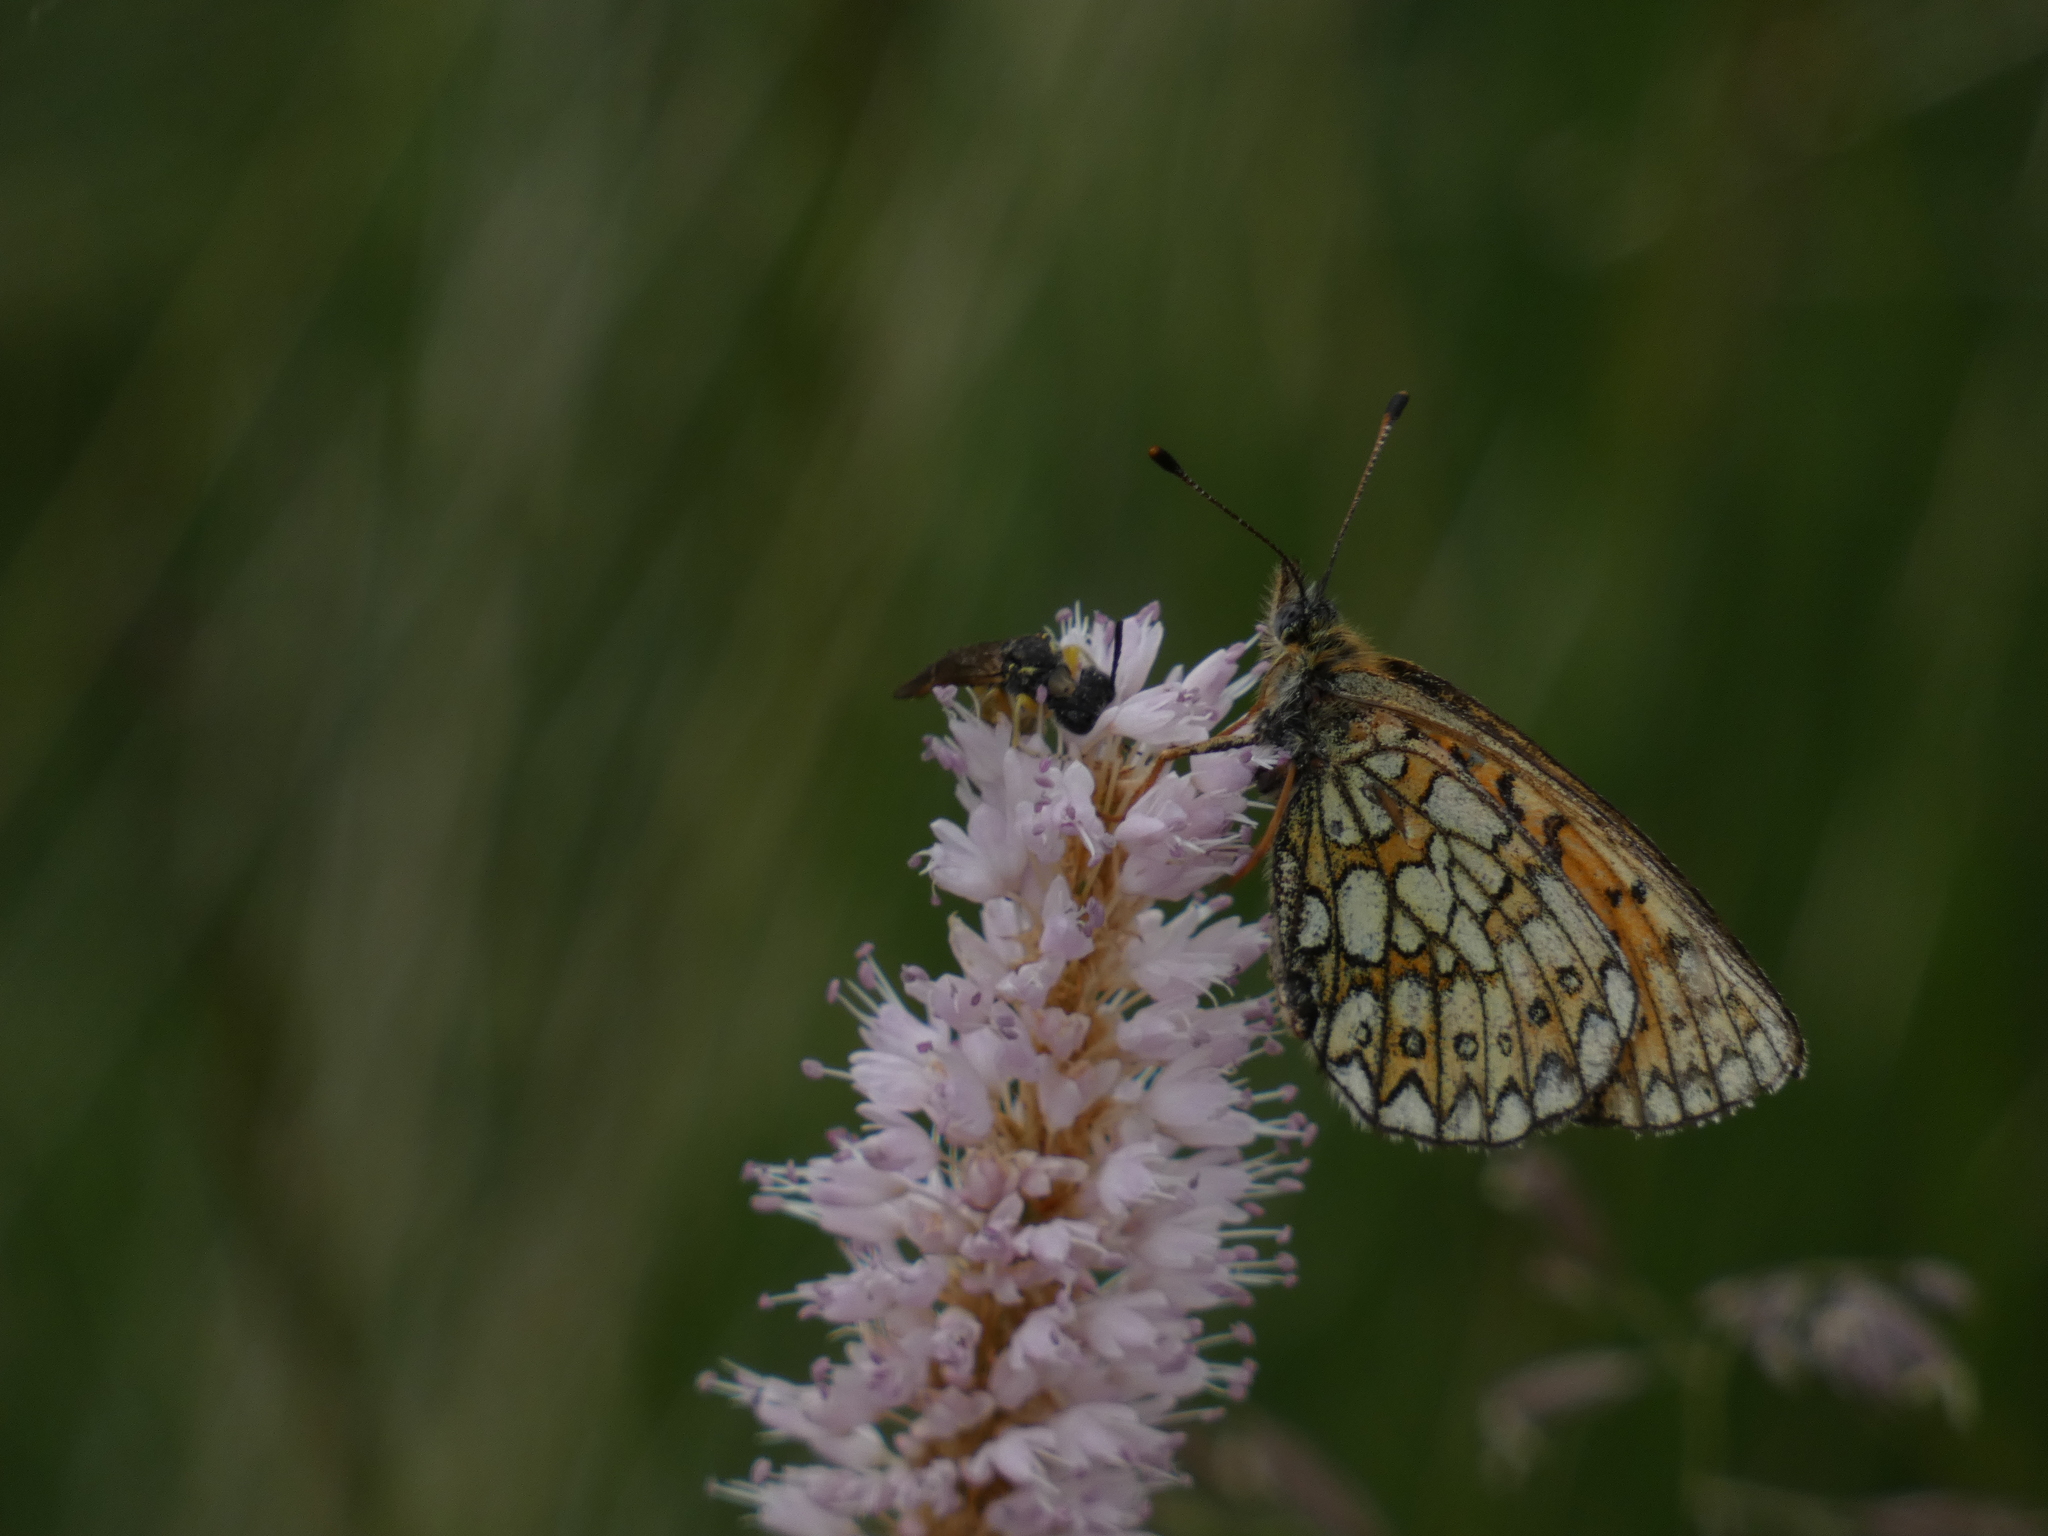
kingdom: Animalia
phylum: Arthropoda
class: Insecta
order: Lepidoptera
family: Nymphalidae
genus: Boloria
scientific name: Boloria eunomia
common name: Bog fritillary
